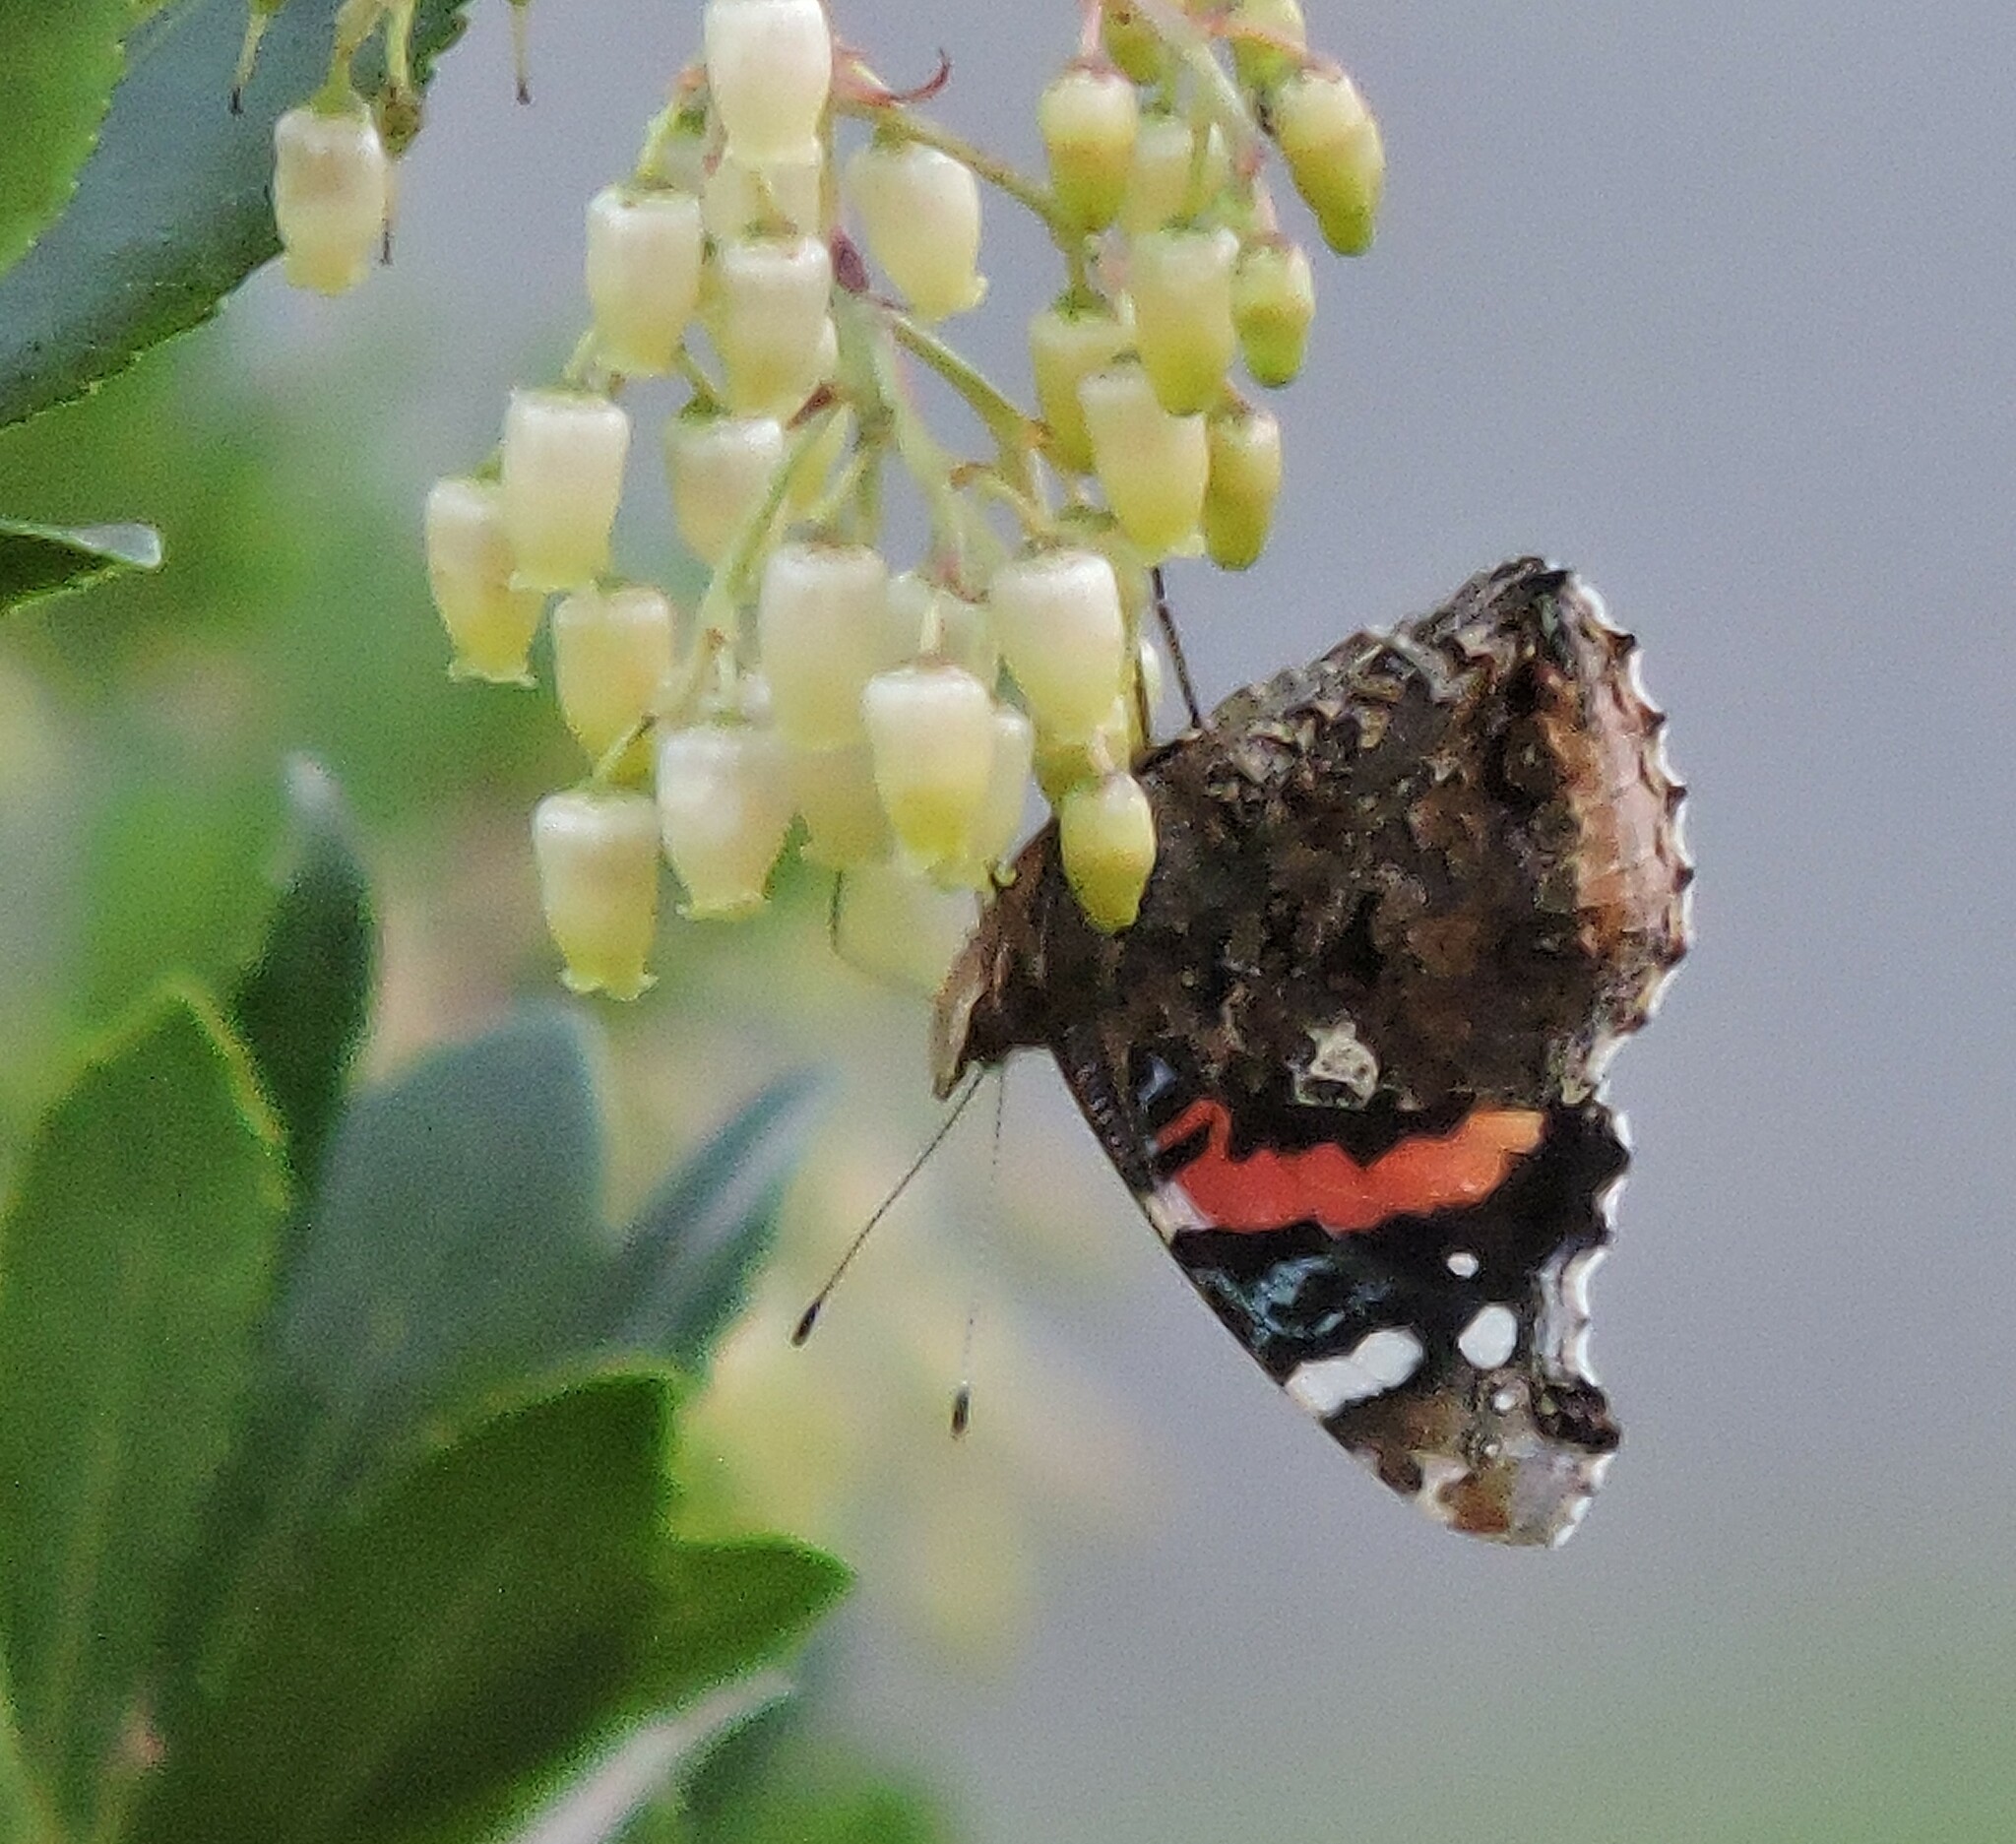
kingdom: Animalia
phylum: Arthropoda
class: Insecta
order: Lepidoptera
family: Nymphalidae
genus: Vanessa
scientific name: Vanessa atalanta
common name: Red admiral
